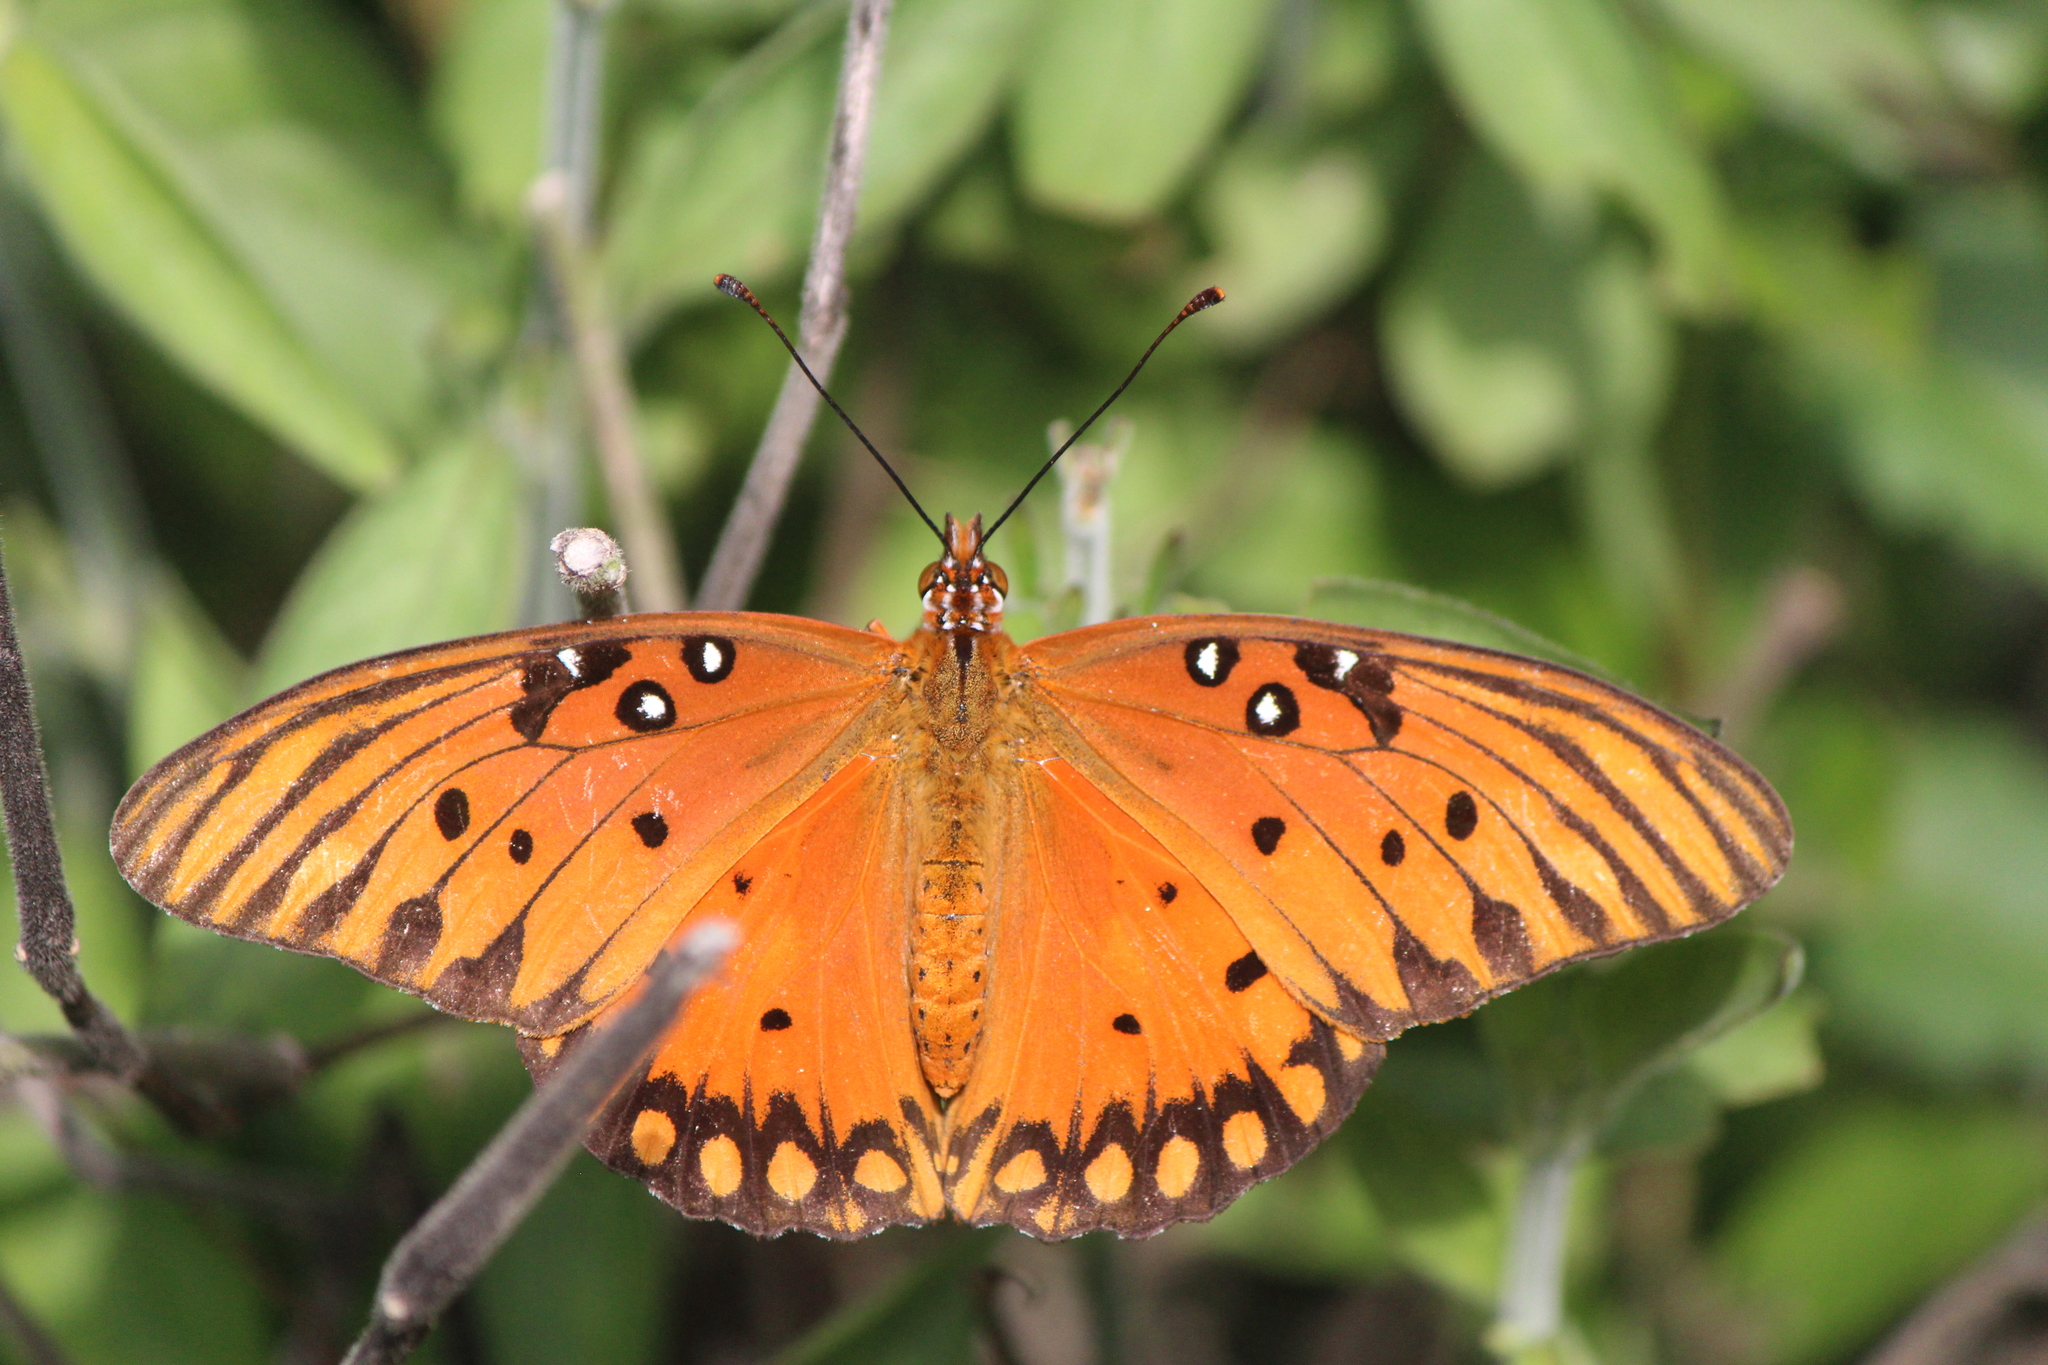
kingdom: Animalia
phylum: Arthropoda
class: Insecta
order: Lepidoptera
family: Nymphalidae
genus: Dione
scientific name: Dione vanillae
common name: Gulf fritillary
